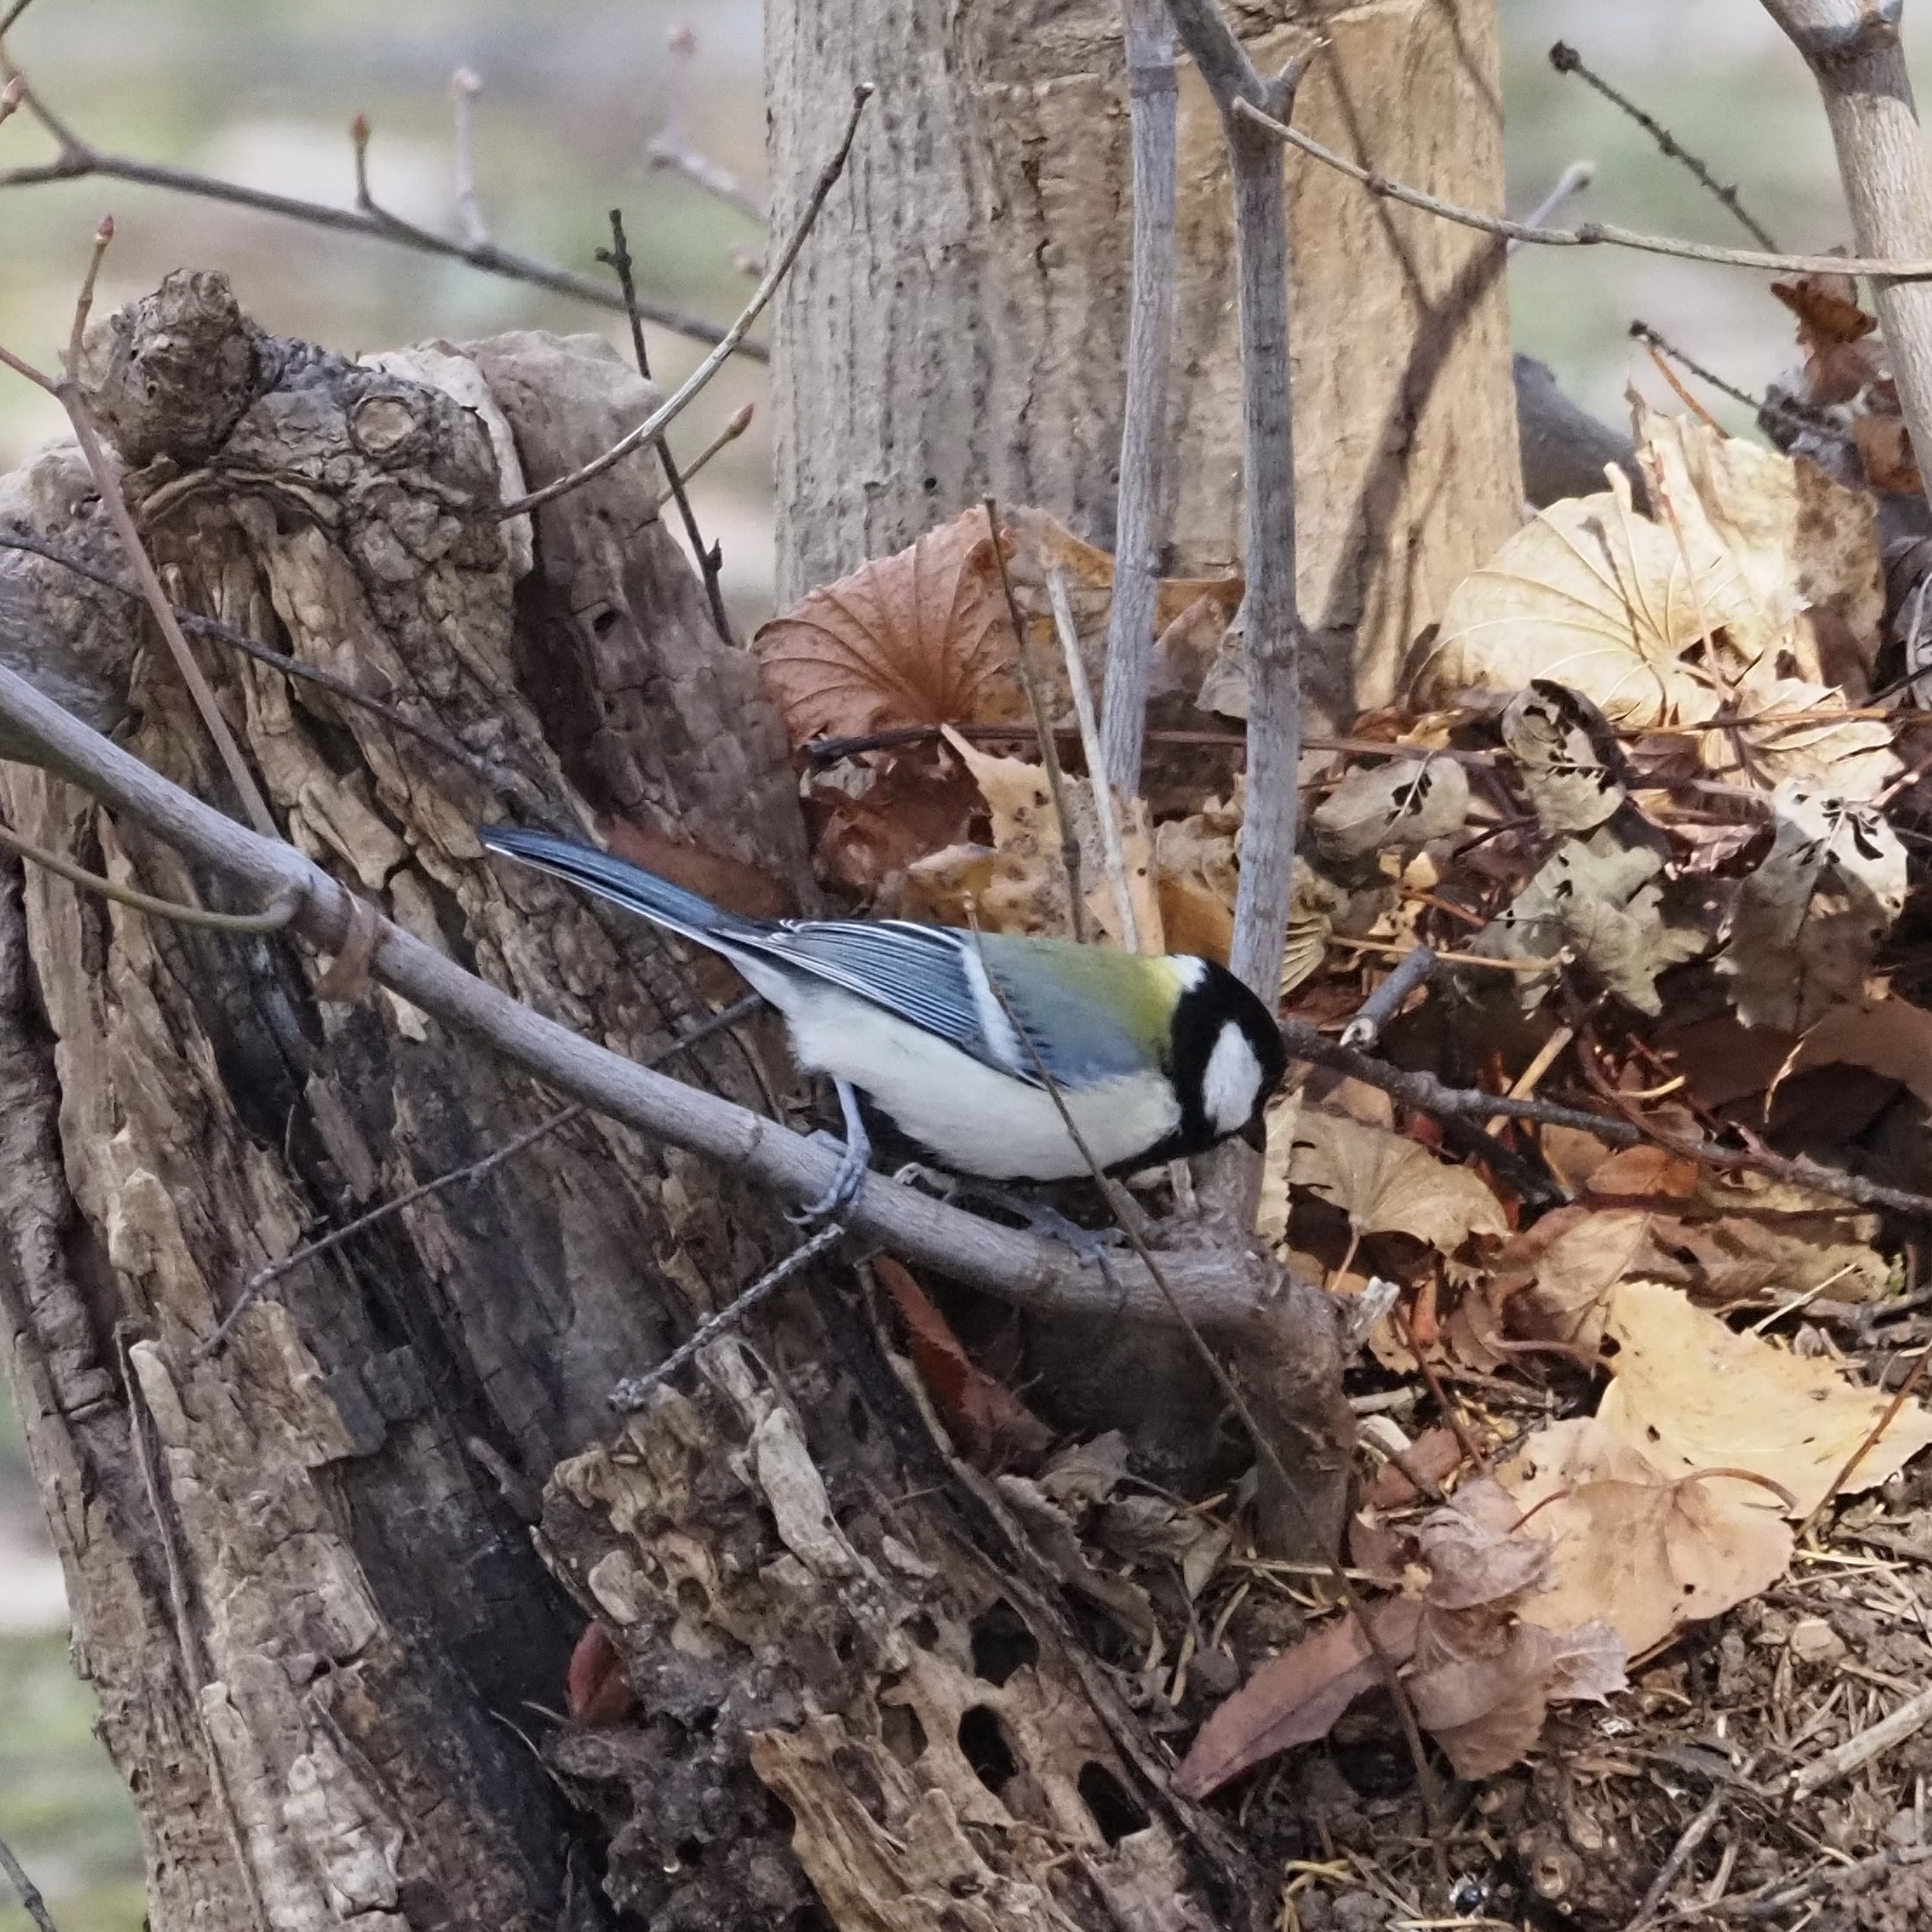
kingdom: Animalia
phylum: Chordata
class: Aves
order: Passeriformes
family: Paridae
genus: Parus
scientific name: Parus minor
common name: Japanese tit
